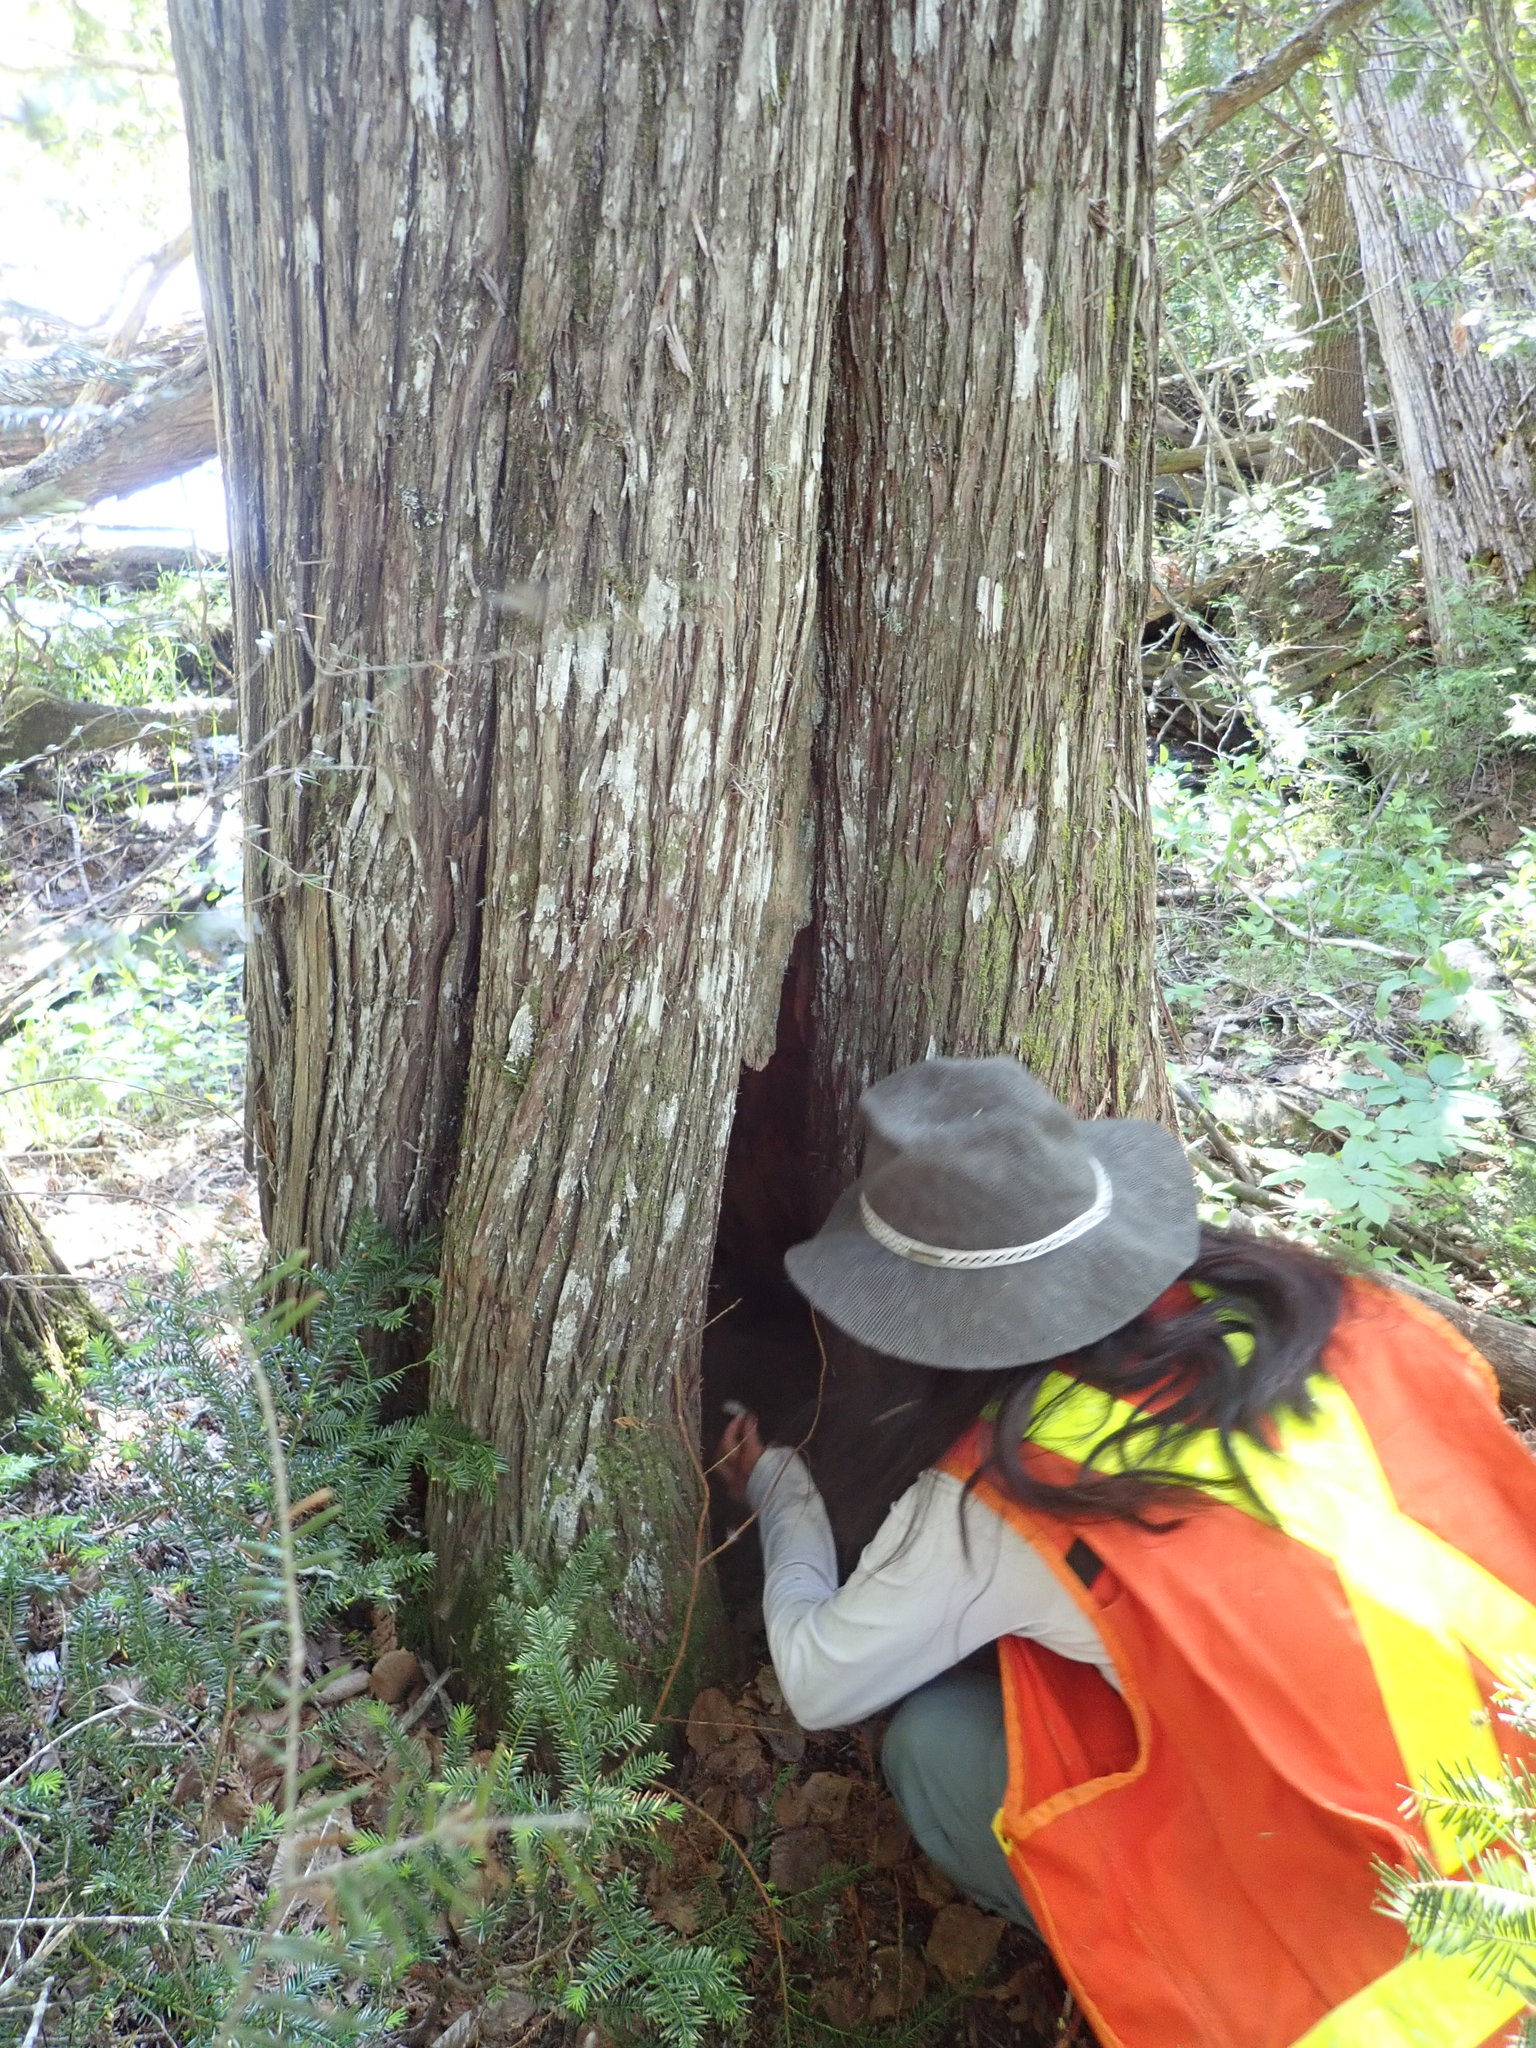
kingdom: Plantae
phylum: Tracheophyta
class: Pinopsida
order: Pinales
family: Cupressaceae
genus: Thuja
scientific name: Thuja occidentalis
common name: Northern white-cedar
